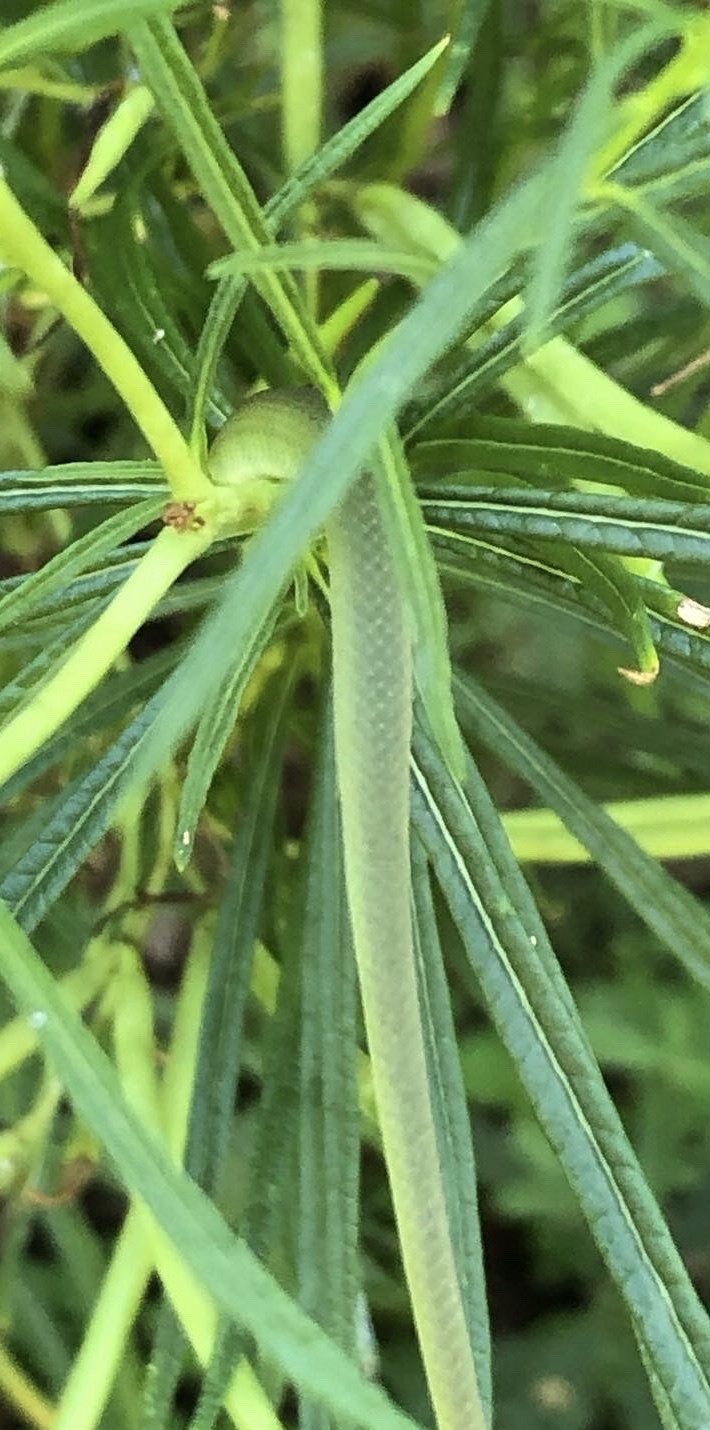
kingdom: Animalia
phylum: Chordata
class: Squamata
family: Colubridae
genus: Opheodrys
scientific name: Opheodrys aestivus
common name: Rough greensnake
